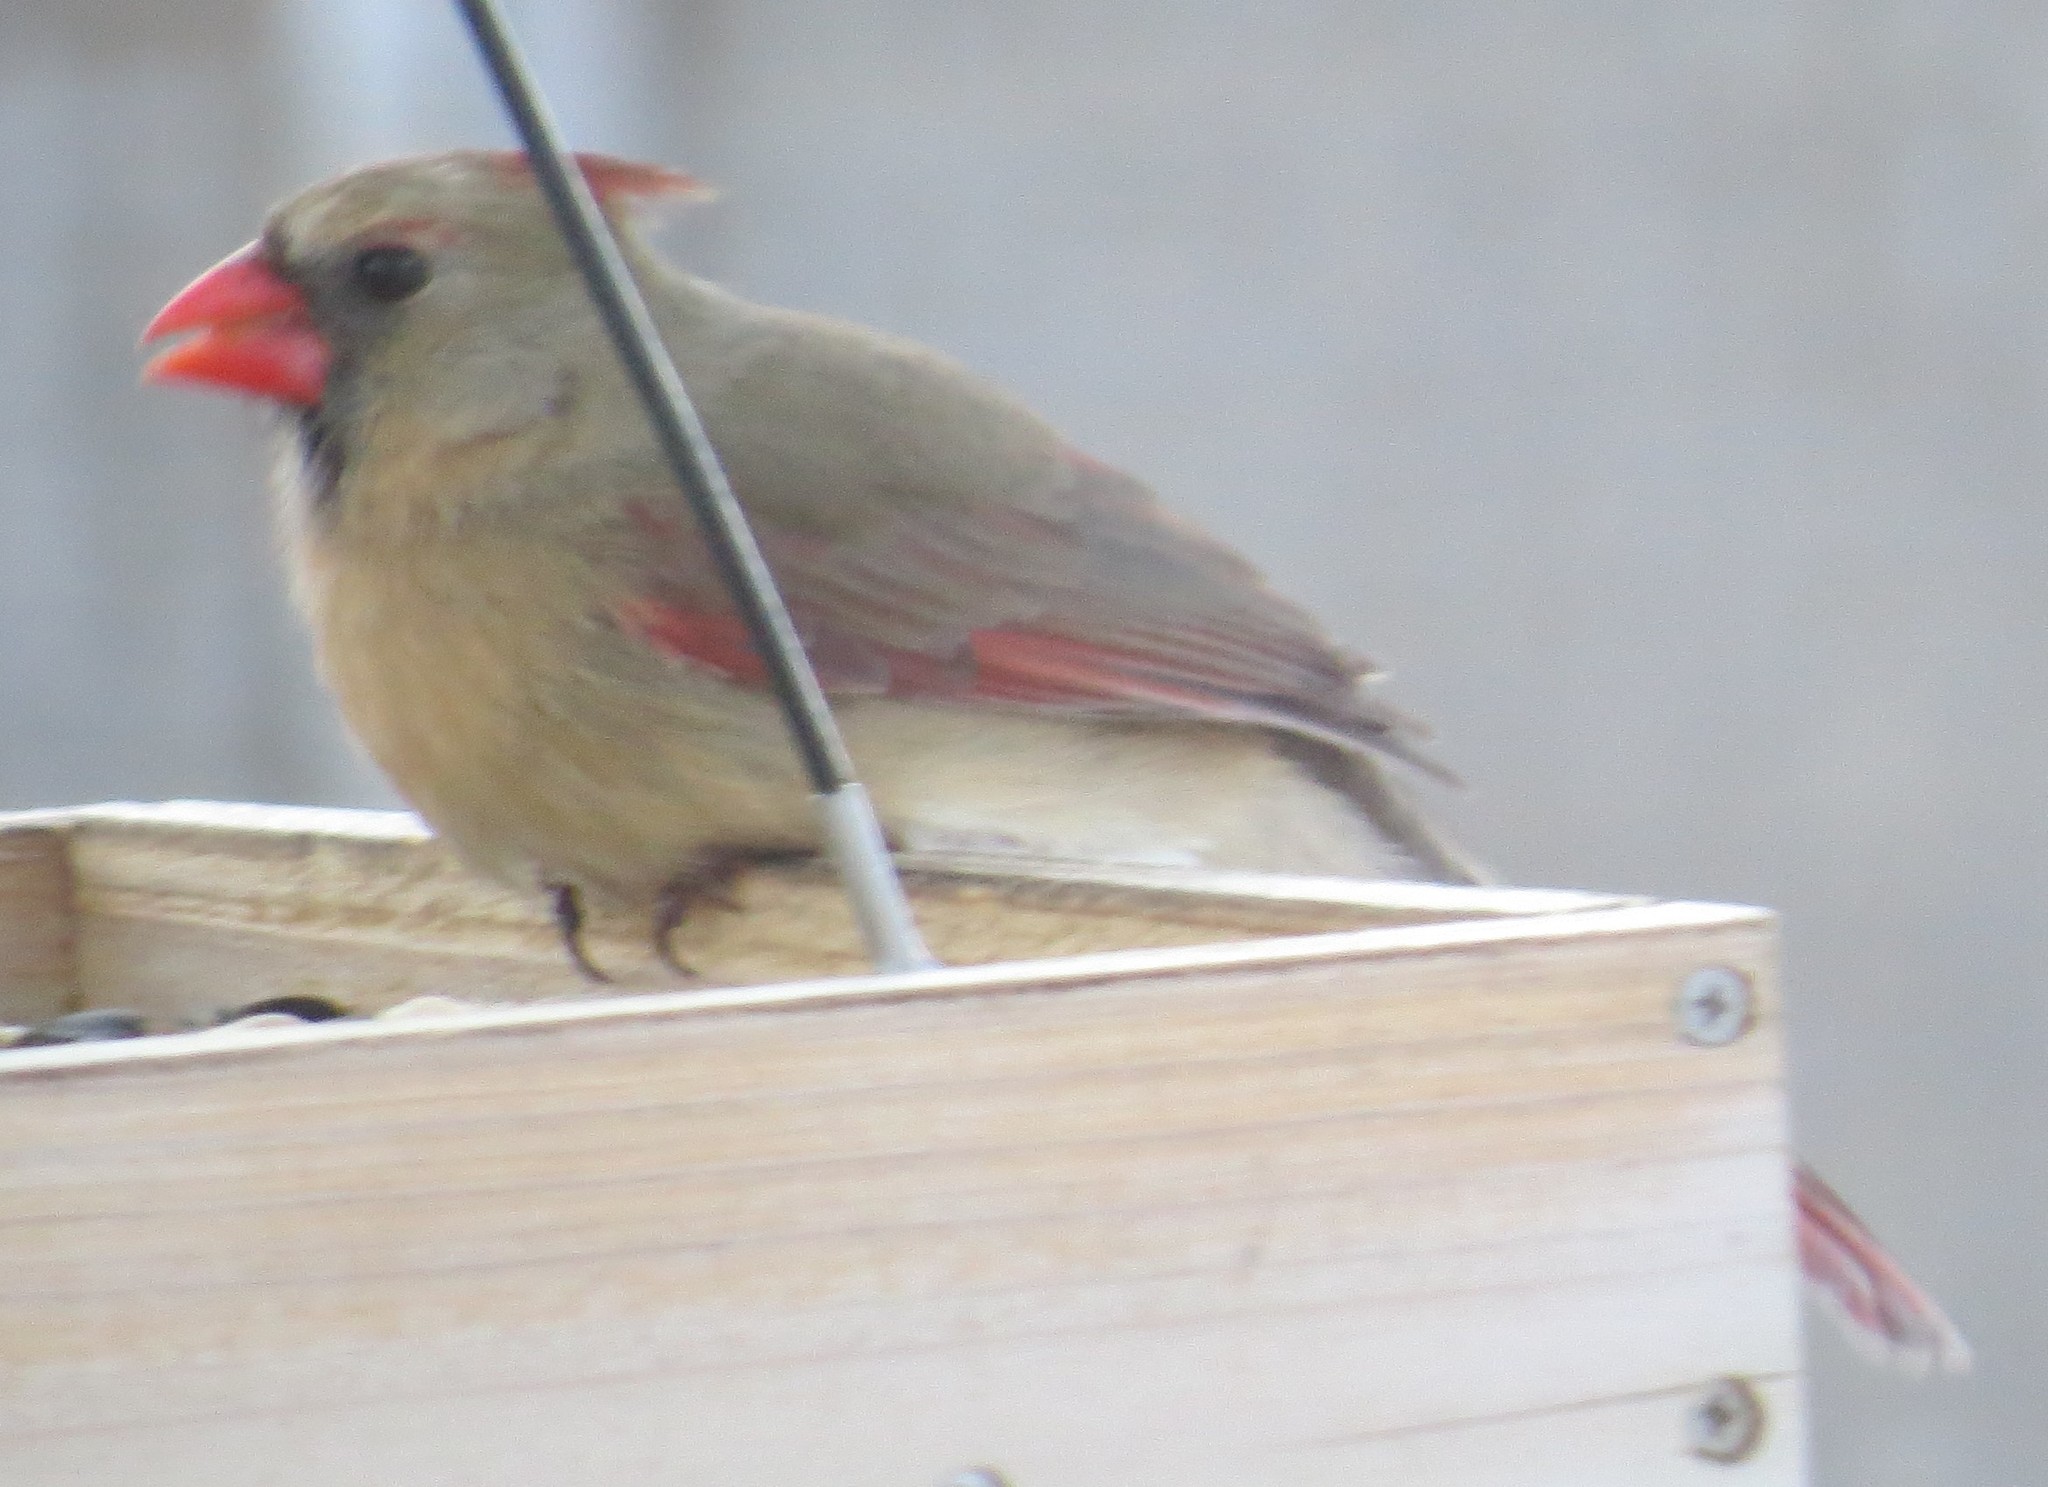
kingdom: Animalia
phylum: Chordata
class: Aves
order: Passeriformes
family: Cardinalidae
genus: Cardinalis
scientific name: Cardinalis cardinalis
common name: Northern cardinal
